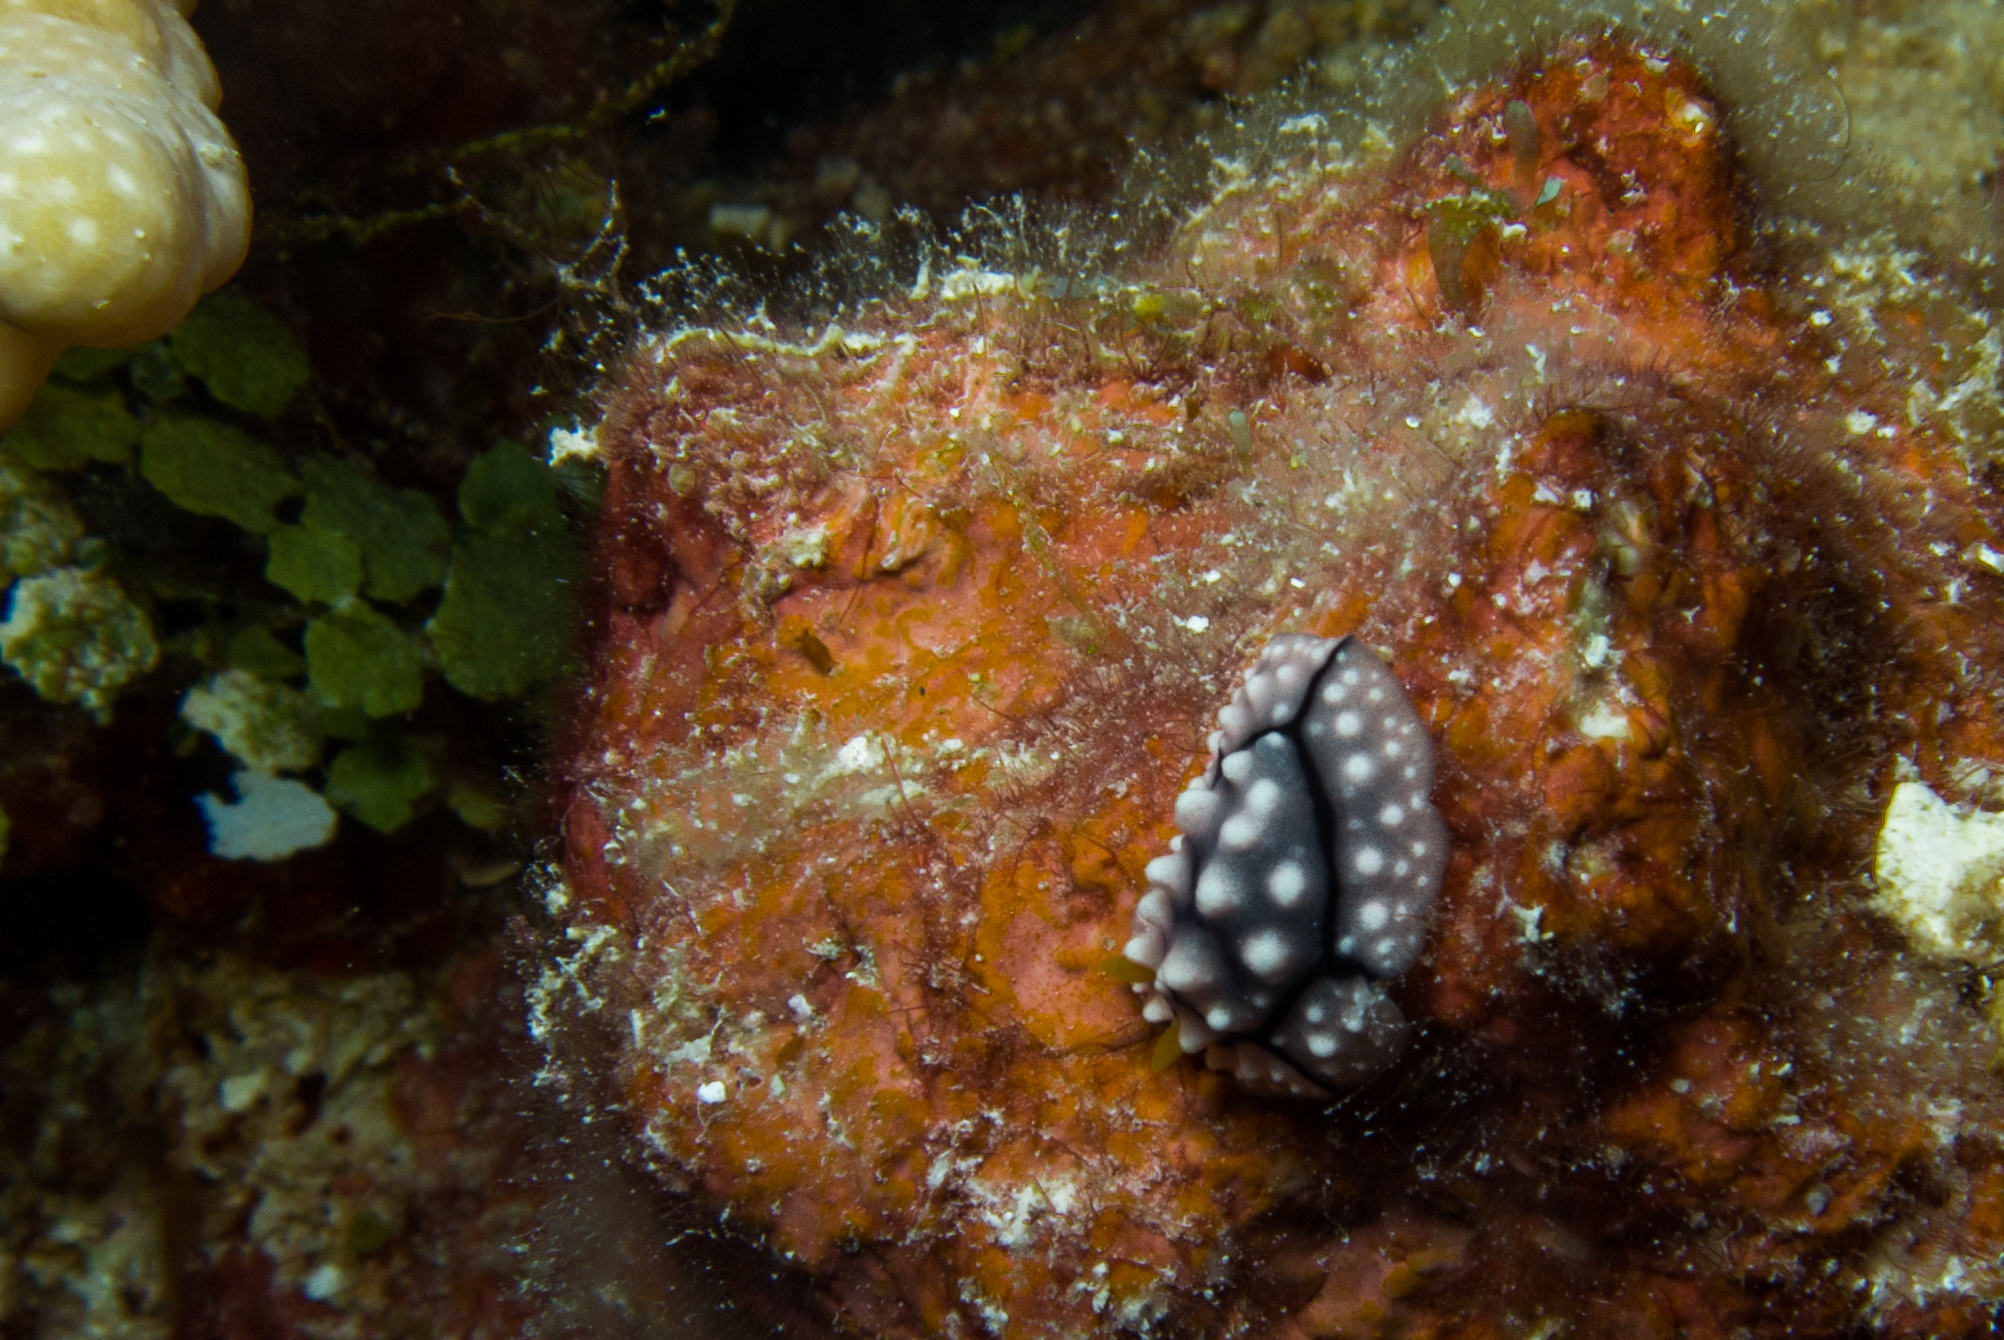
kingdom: Animalia
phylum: Mollusca
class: Gastropoda
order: Nudibranchia
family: Phyllidiidae
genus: Phyllidia
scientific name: Phyllidia elegans
